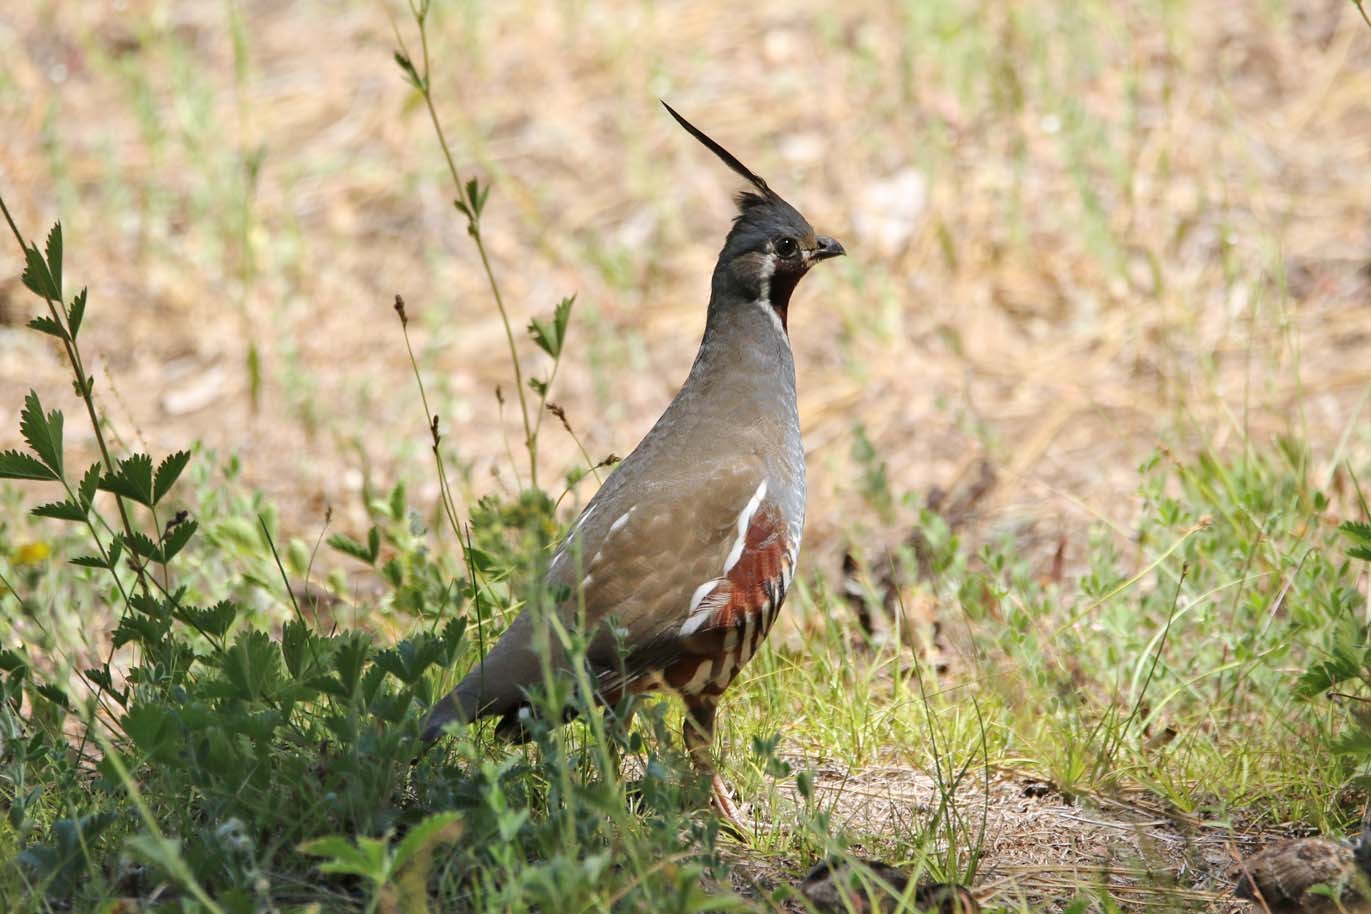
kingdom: Animalia
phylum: Chordata
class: Aves
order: Galliformes
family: Odontophoridae
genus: Oreortyx
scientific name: Oreortyx pictus
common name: Mountain quail
